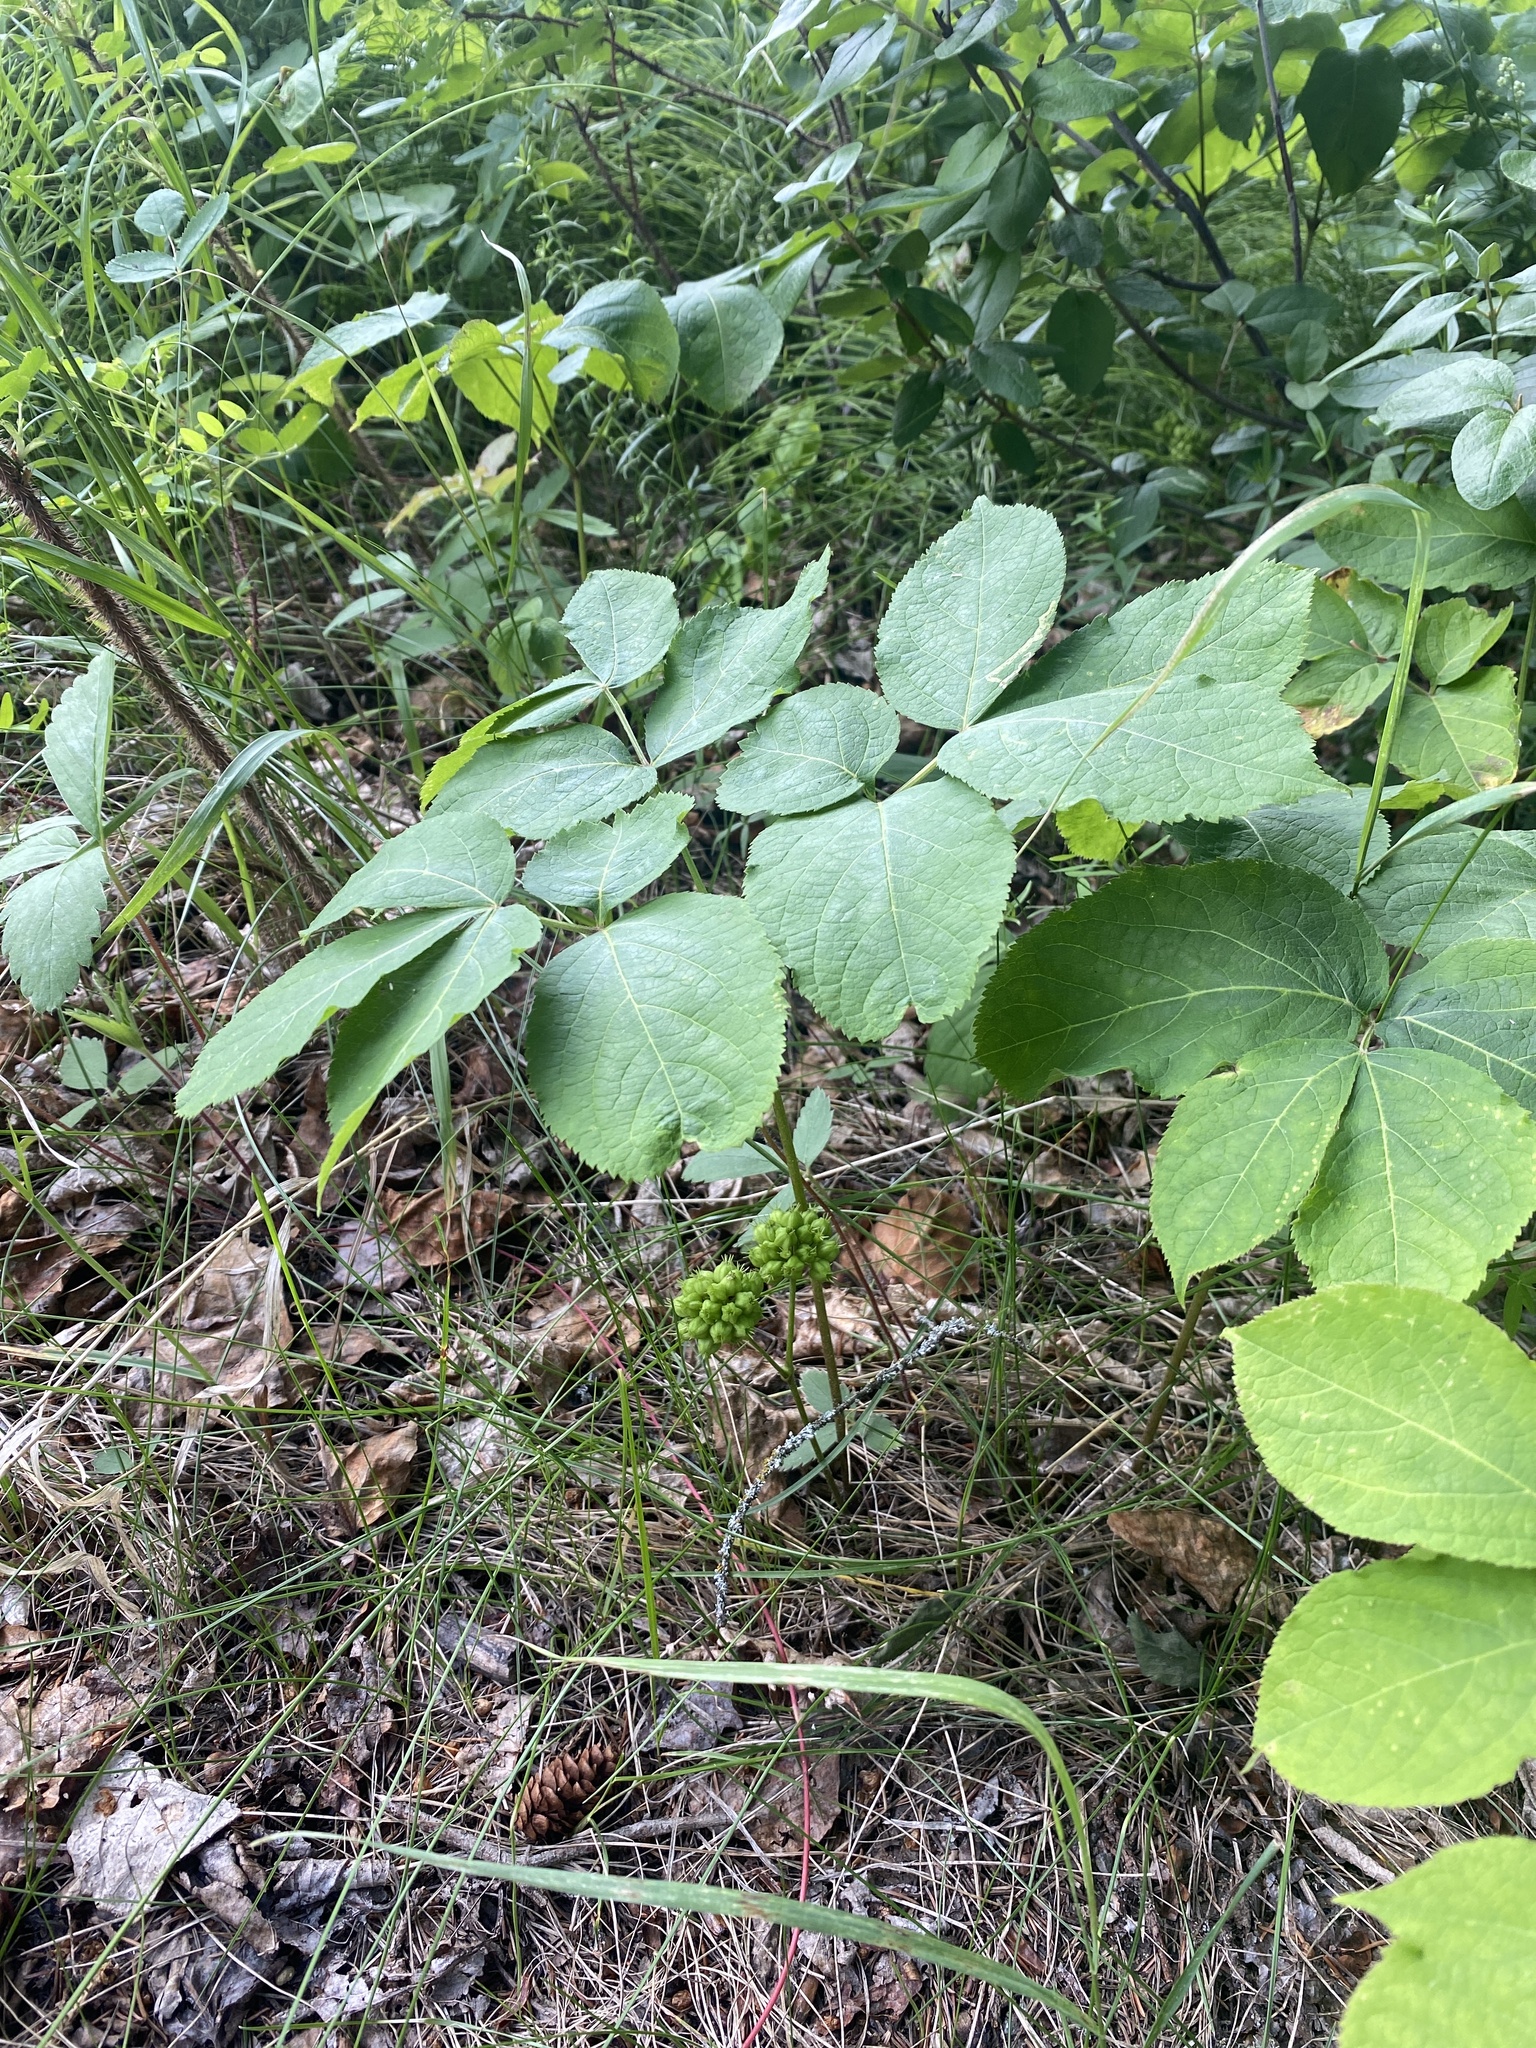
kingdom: Plantae
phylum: Tracheophyta
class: Magnoliopsida
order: Apiales
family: Araliaceae
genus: Aralia
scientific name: Aralia nudicaulis
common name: Wild sarsaparilla
